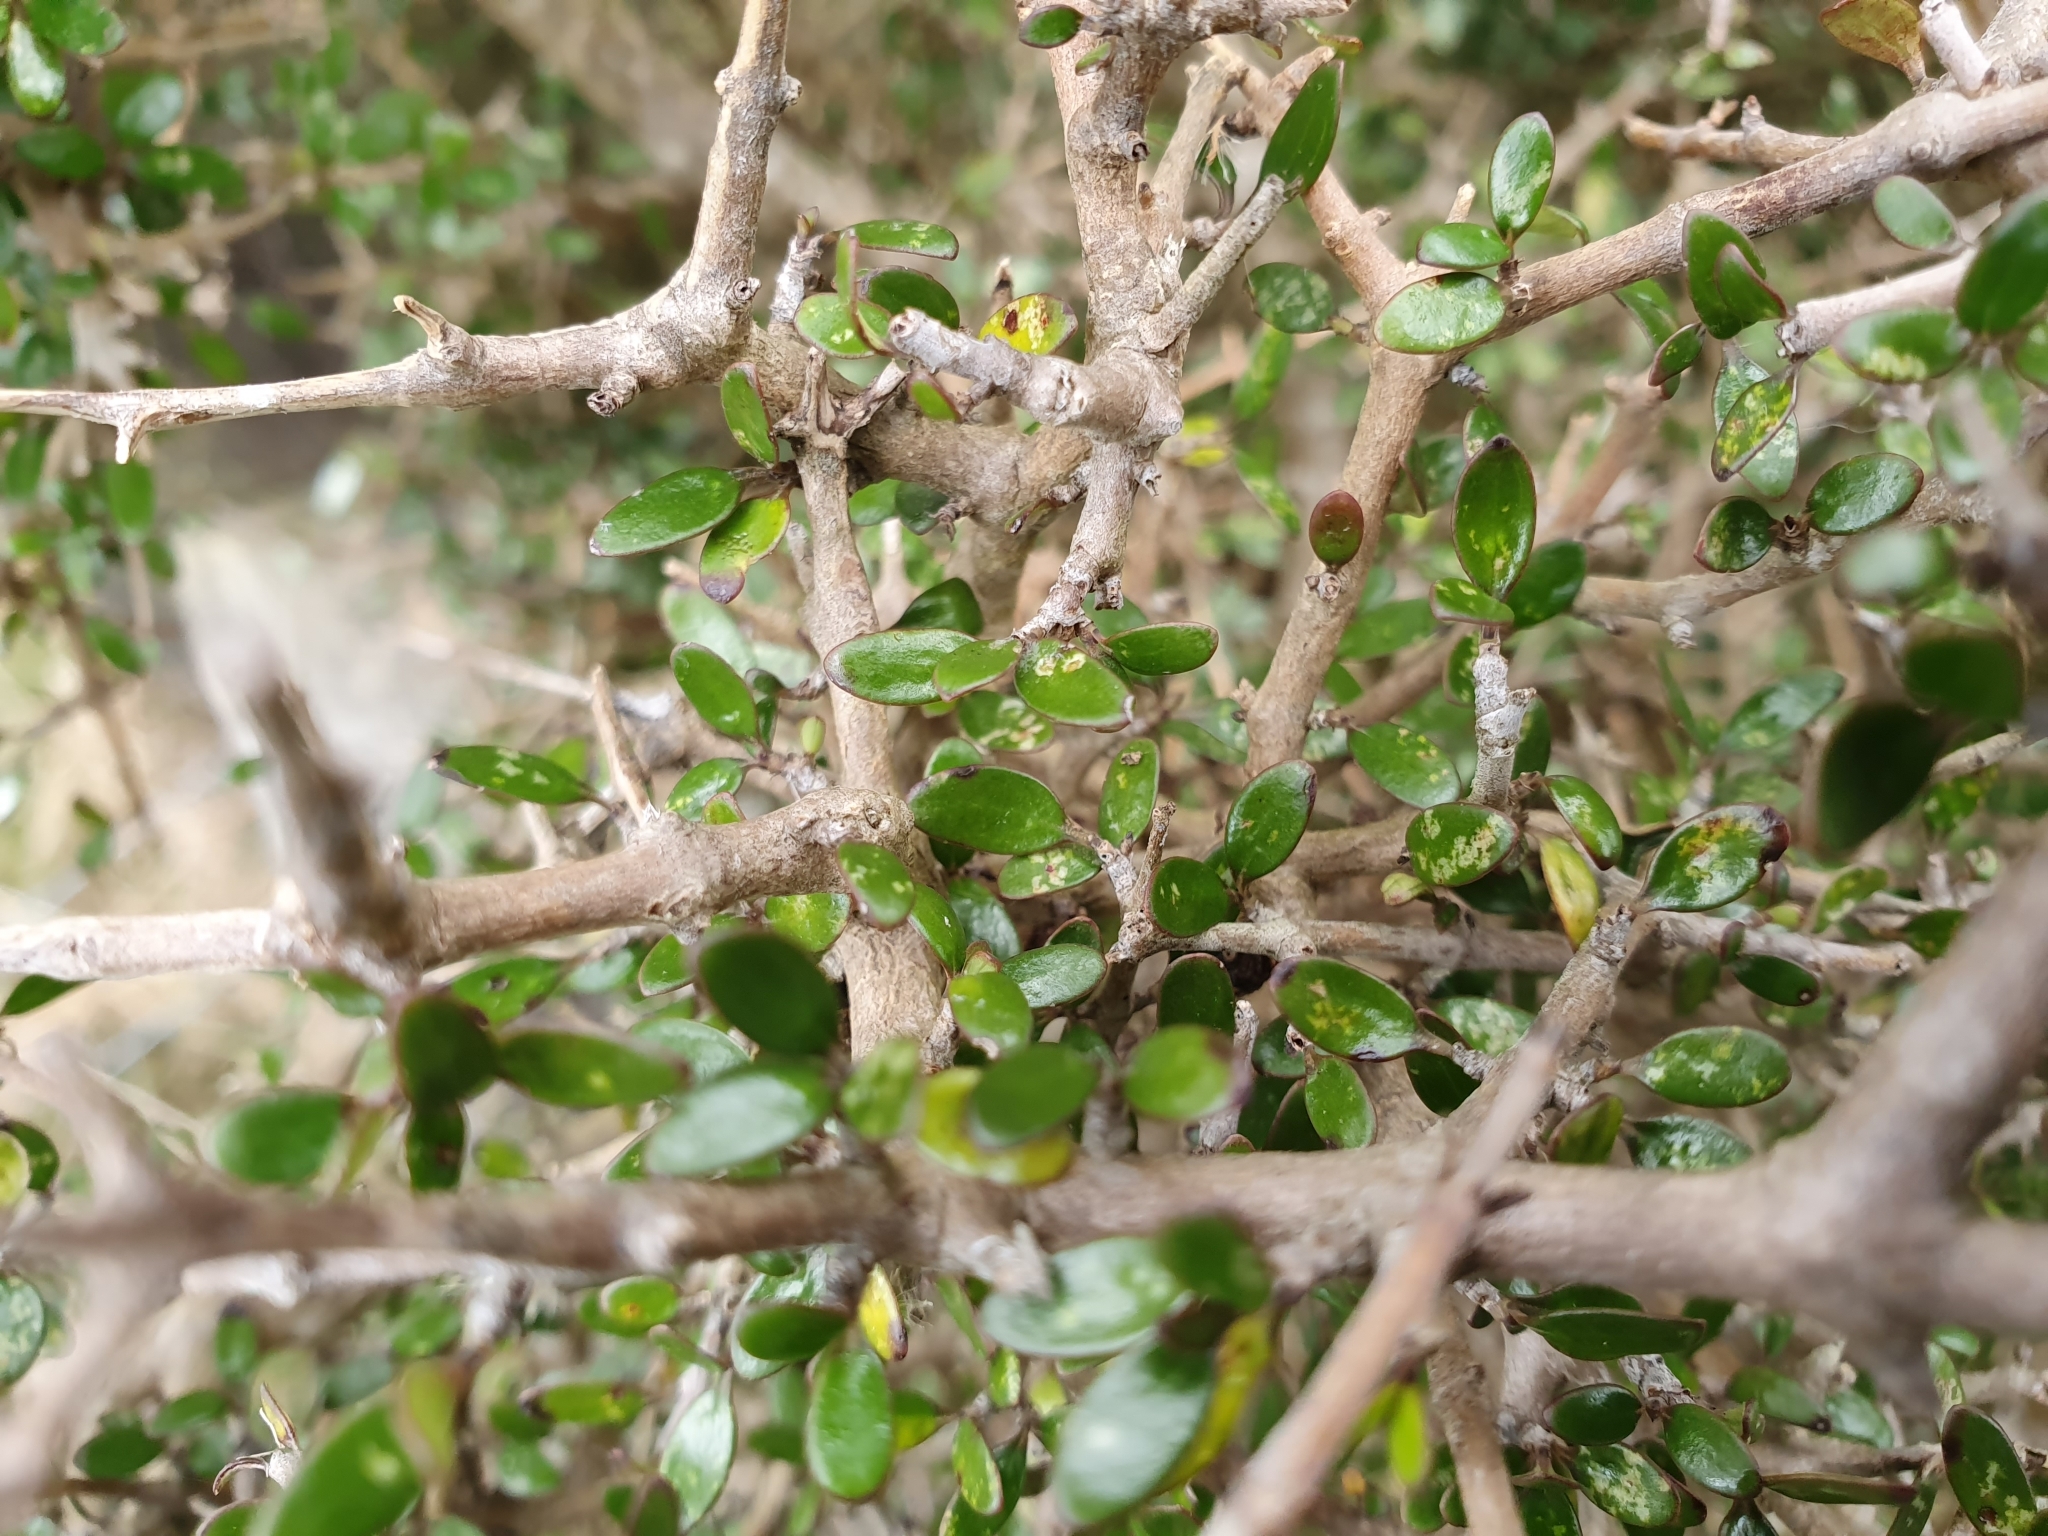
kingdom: Plantae
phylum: Tracheophyta
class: Magnoliopsida
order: Gentianales
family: Rubiaceae
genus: Coprosma
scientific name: Coprosma propinqua
